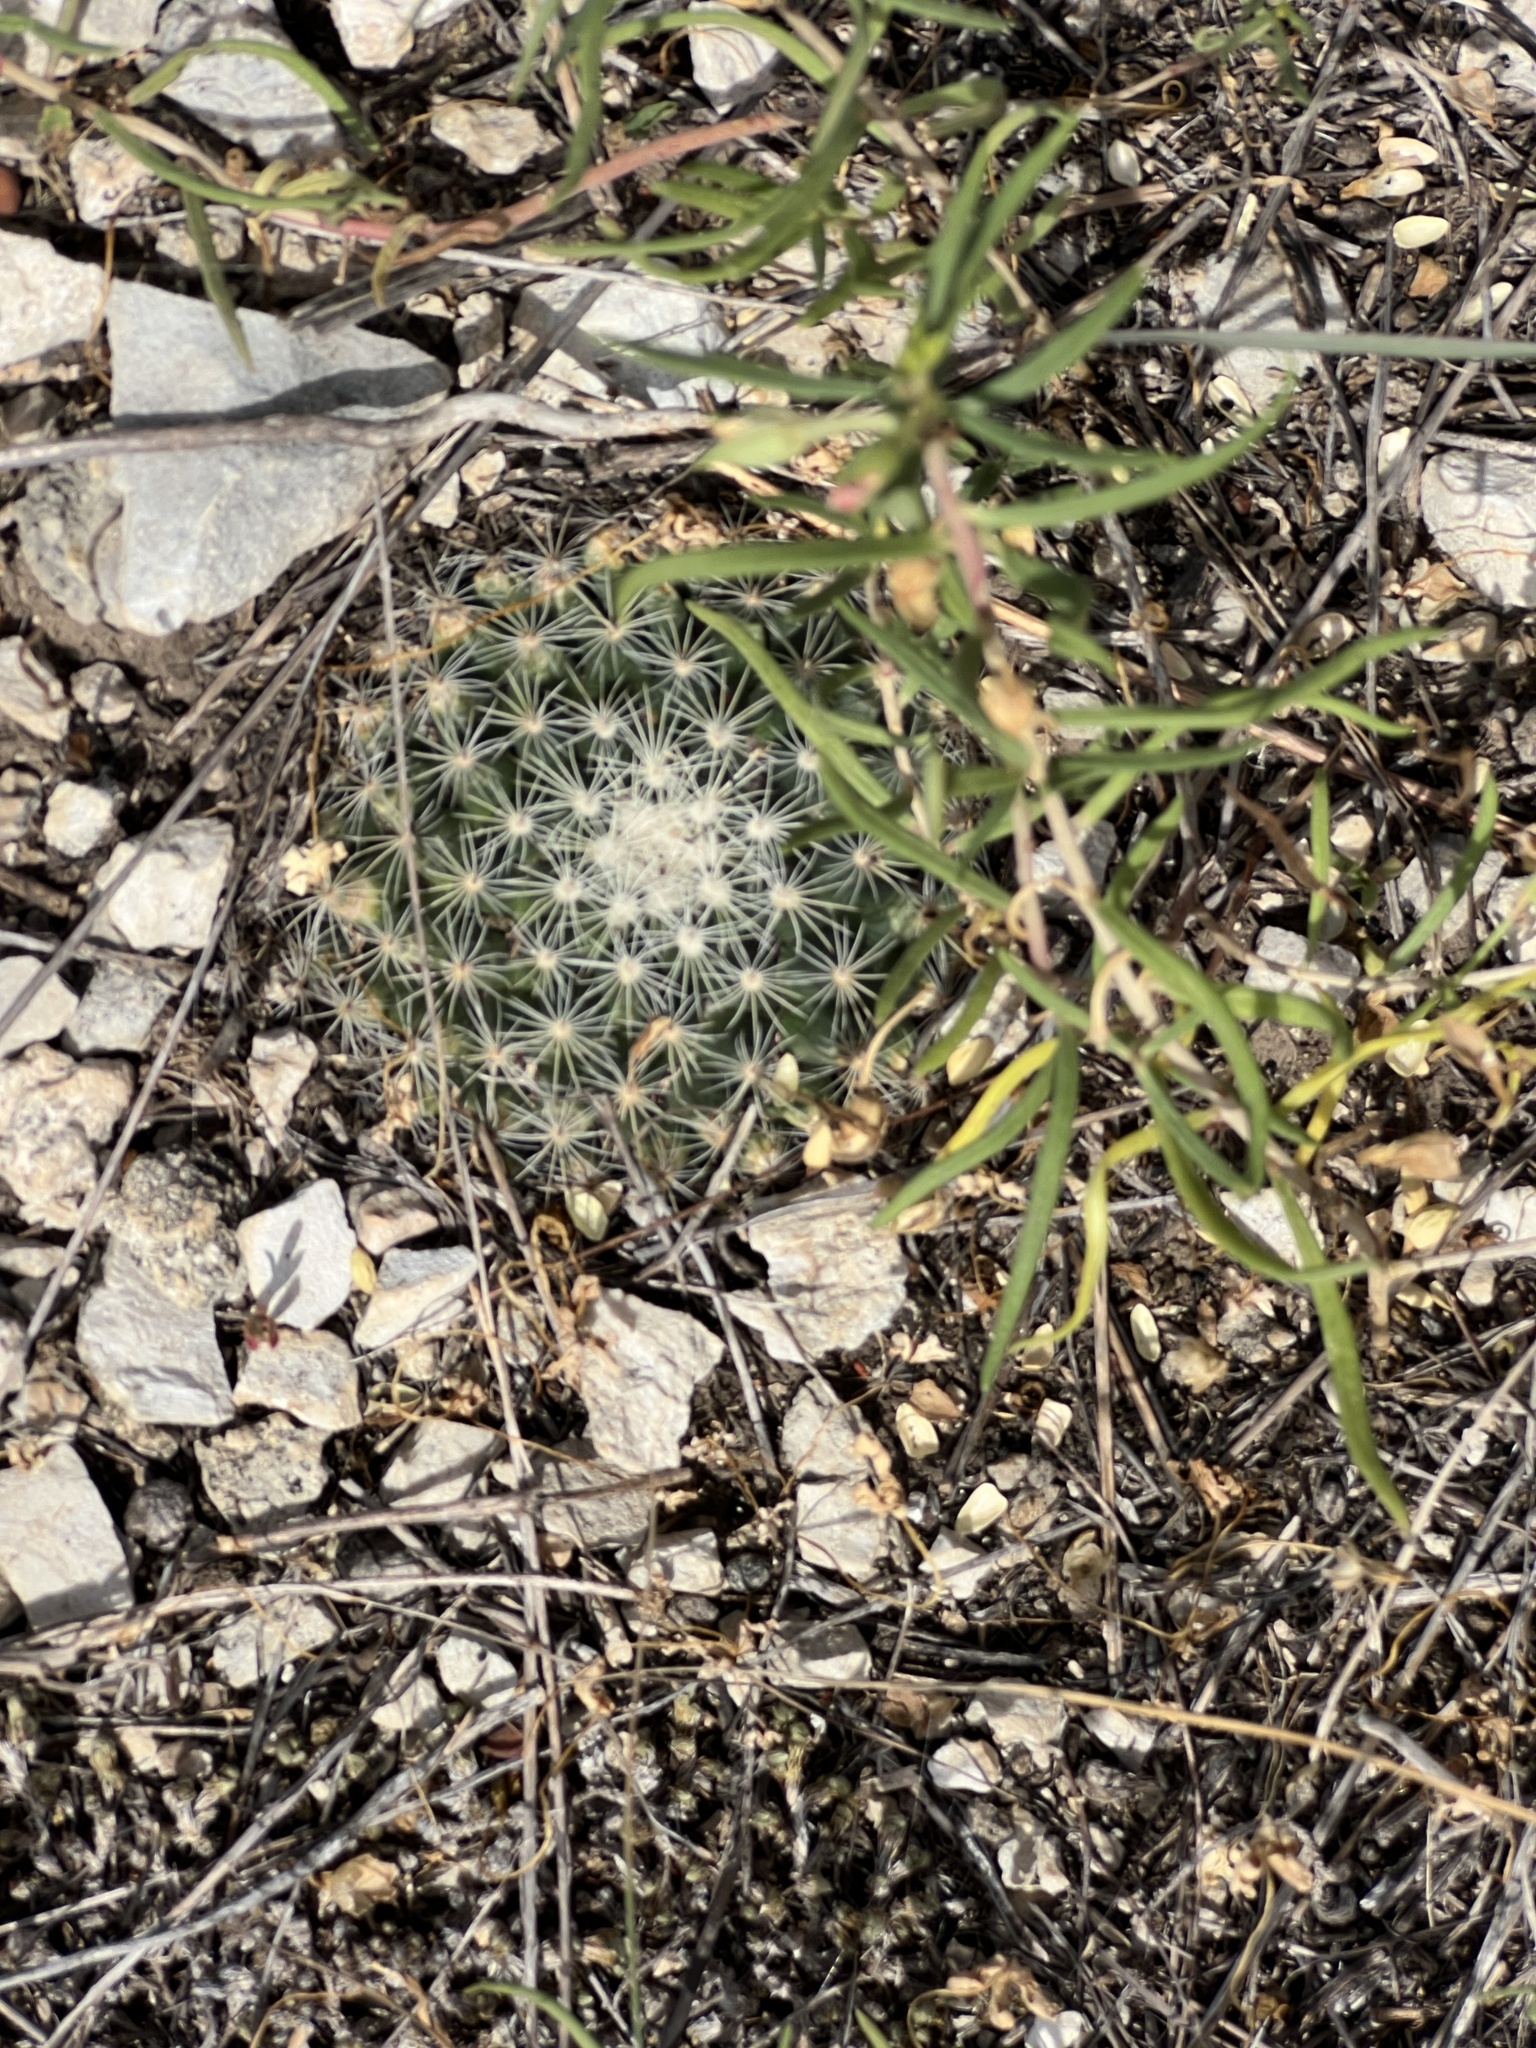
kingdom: Plantae
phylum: Tracheophyta
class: Magnoliopsida
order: Caryophyllales
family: Cactaceae
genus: Mammillaria
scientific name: Mammillaria heyderi
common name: Little nipple cactus
